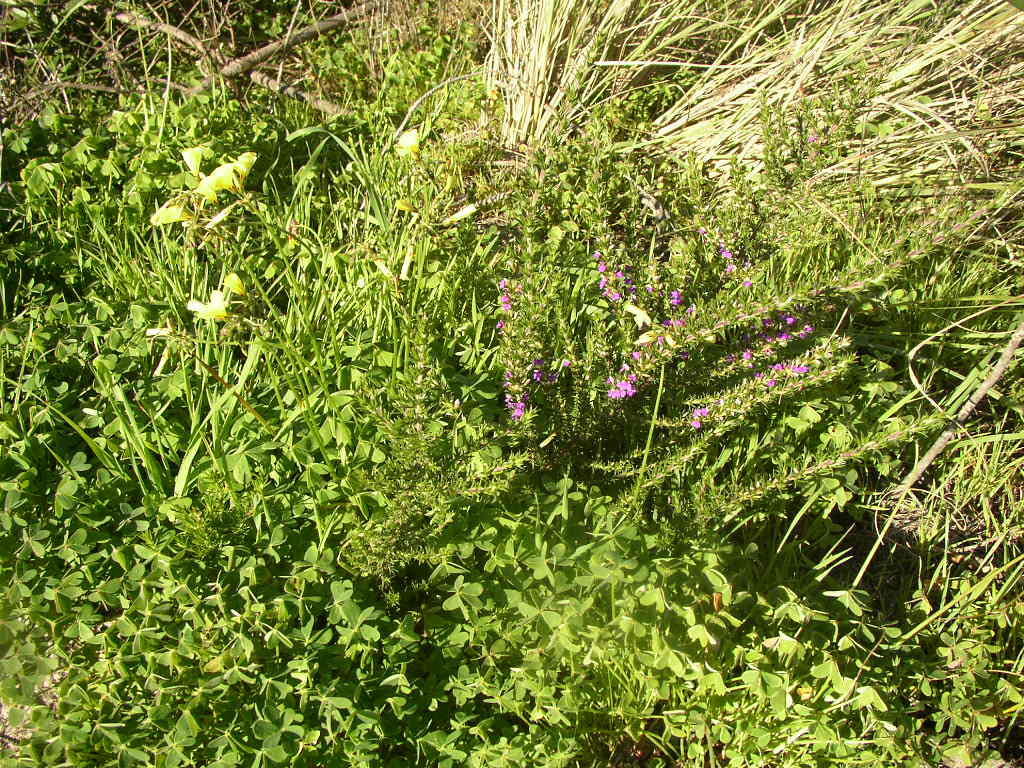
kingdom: Plantae
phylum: Tracheophyta
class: Magnoliopsida
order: Fabales
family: Polygalaceae
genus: Muraltia
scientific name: Muraltia heisteria
